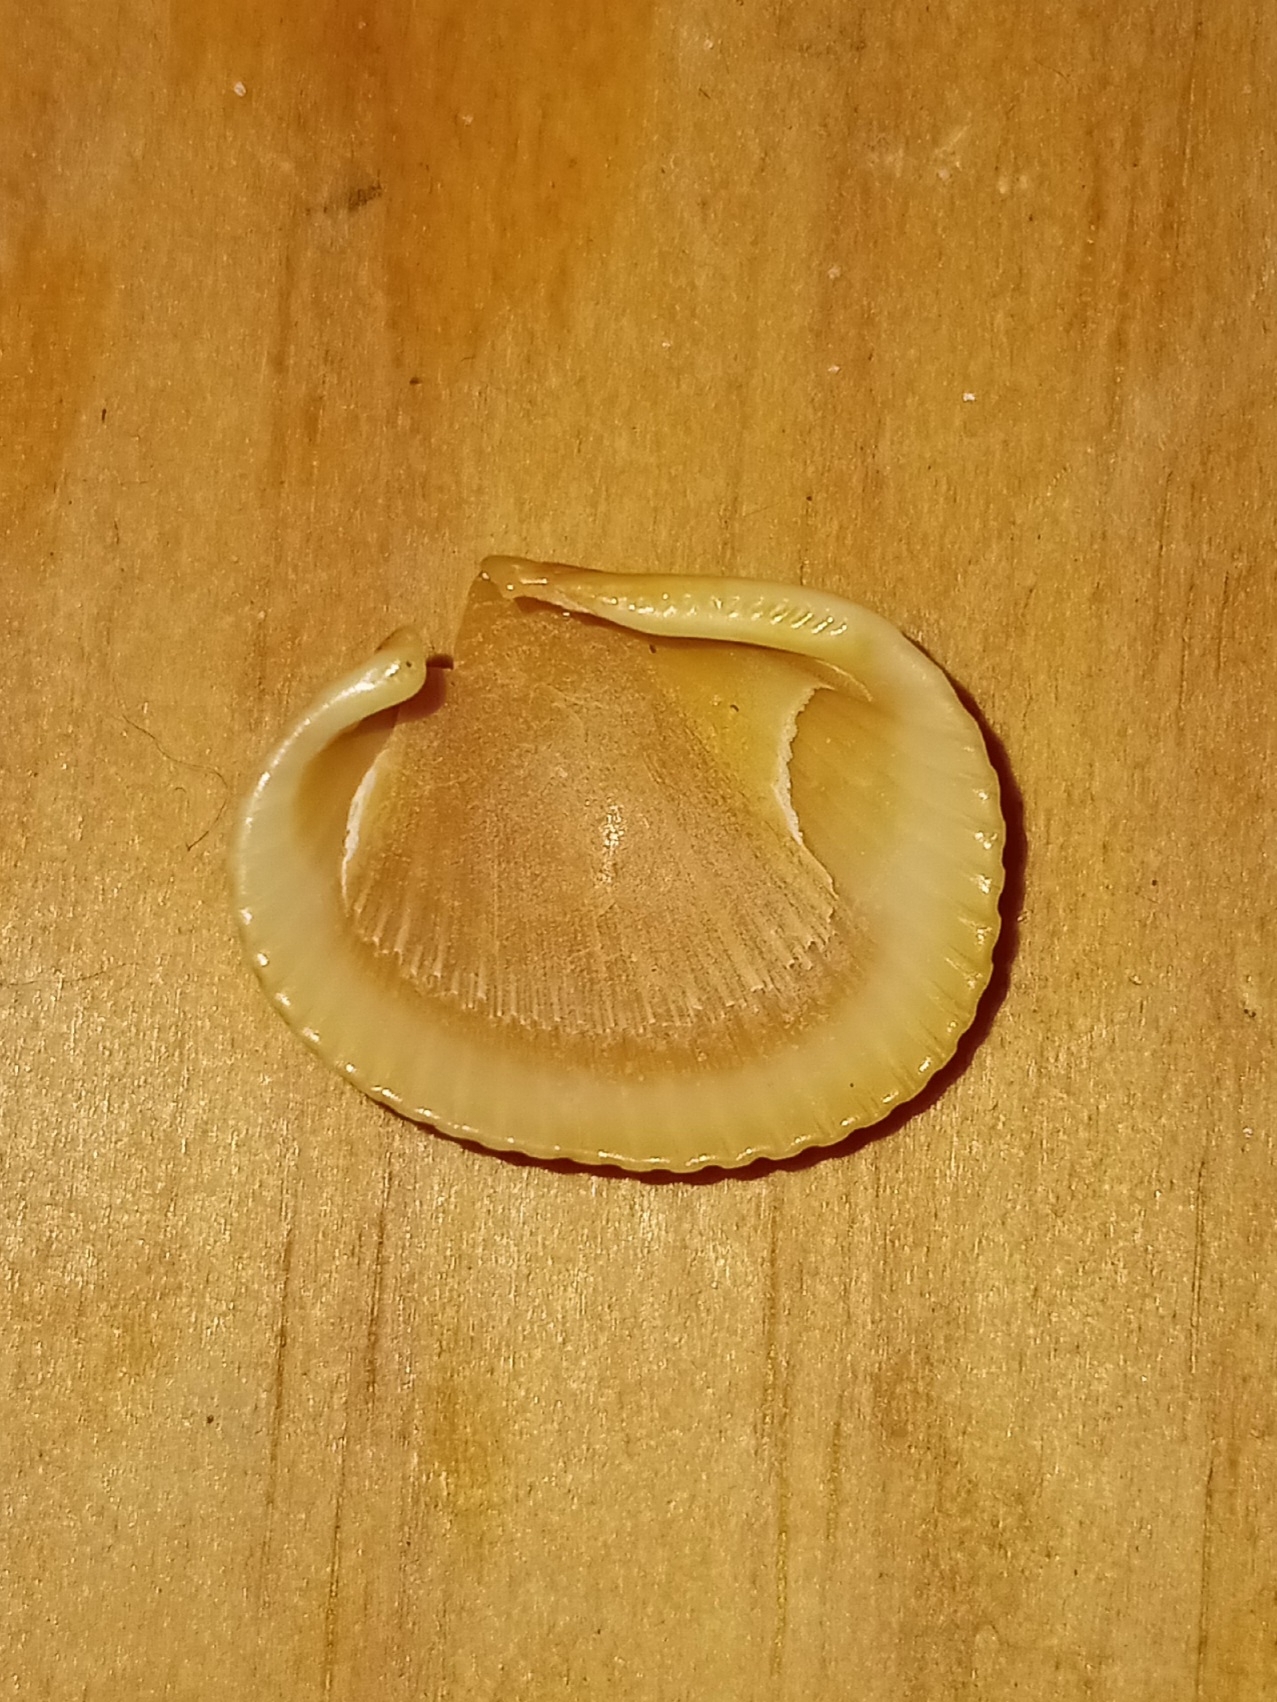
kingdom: Animalia
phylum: Mollusca
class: Bivalvia
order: Arcida
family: Arcidae
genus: Lunarca
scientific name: Lunarca ovalis
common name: Blood ark
